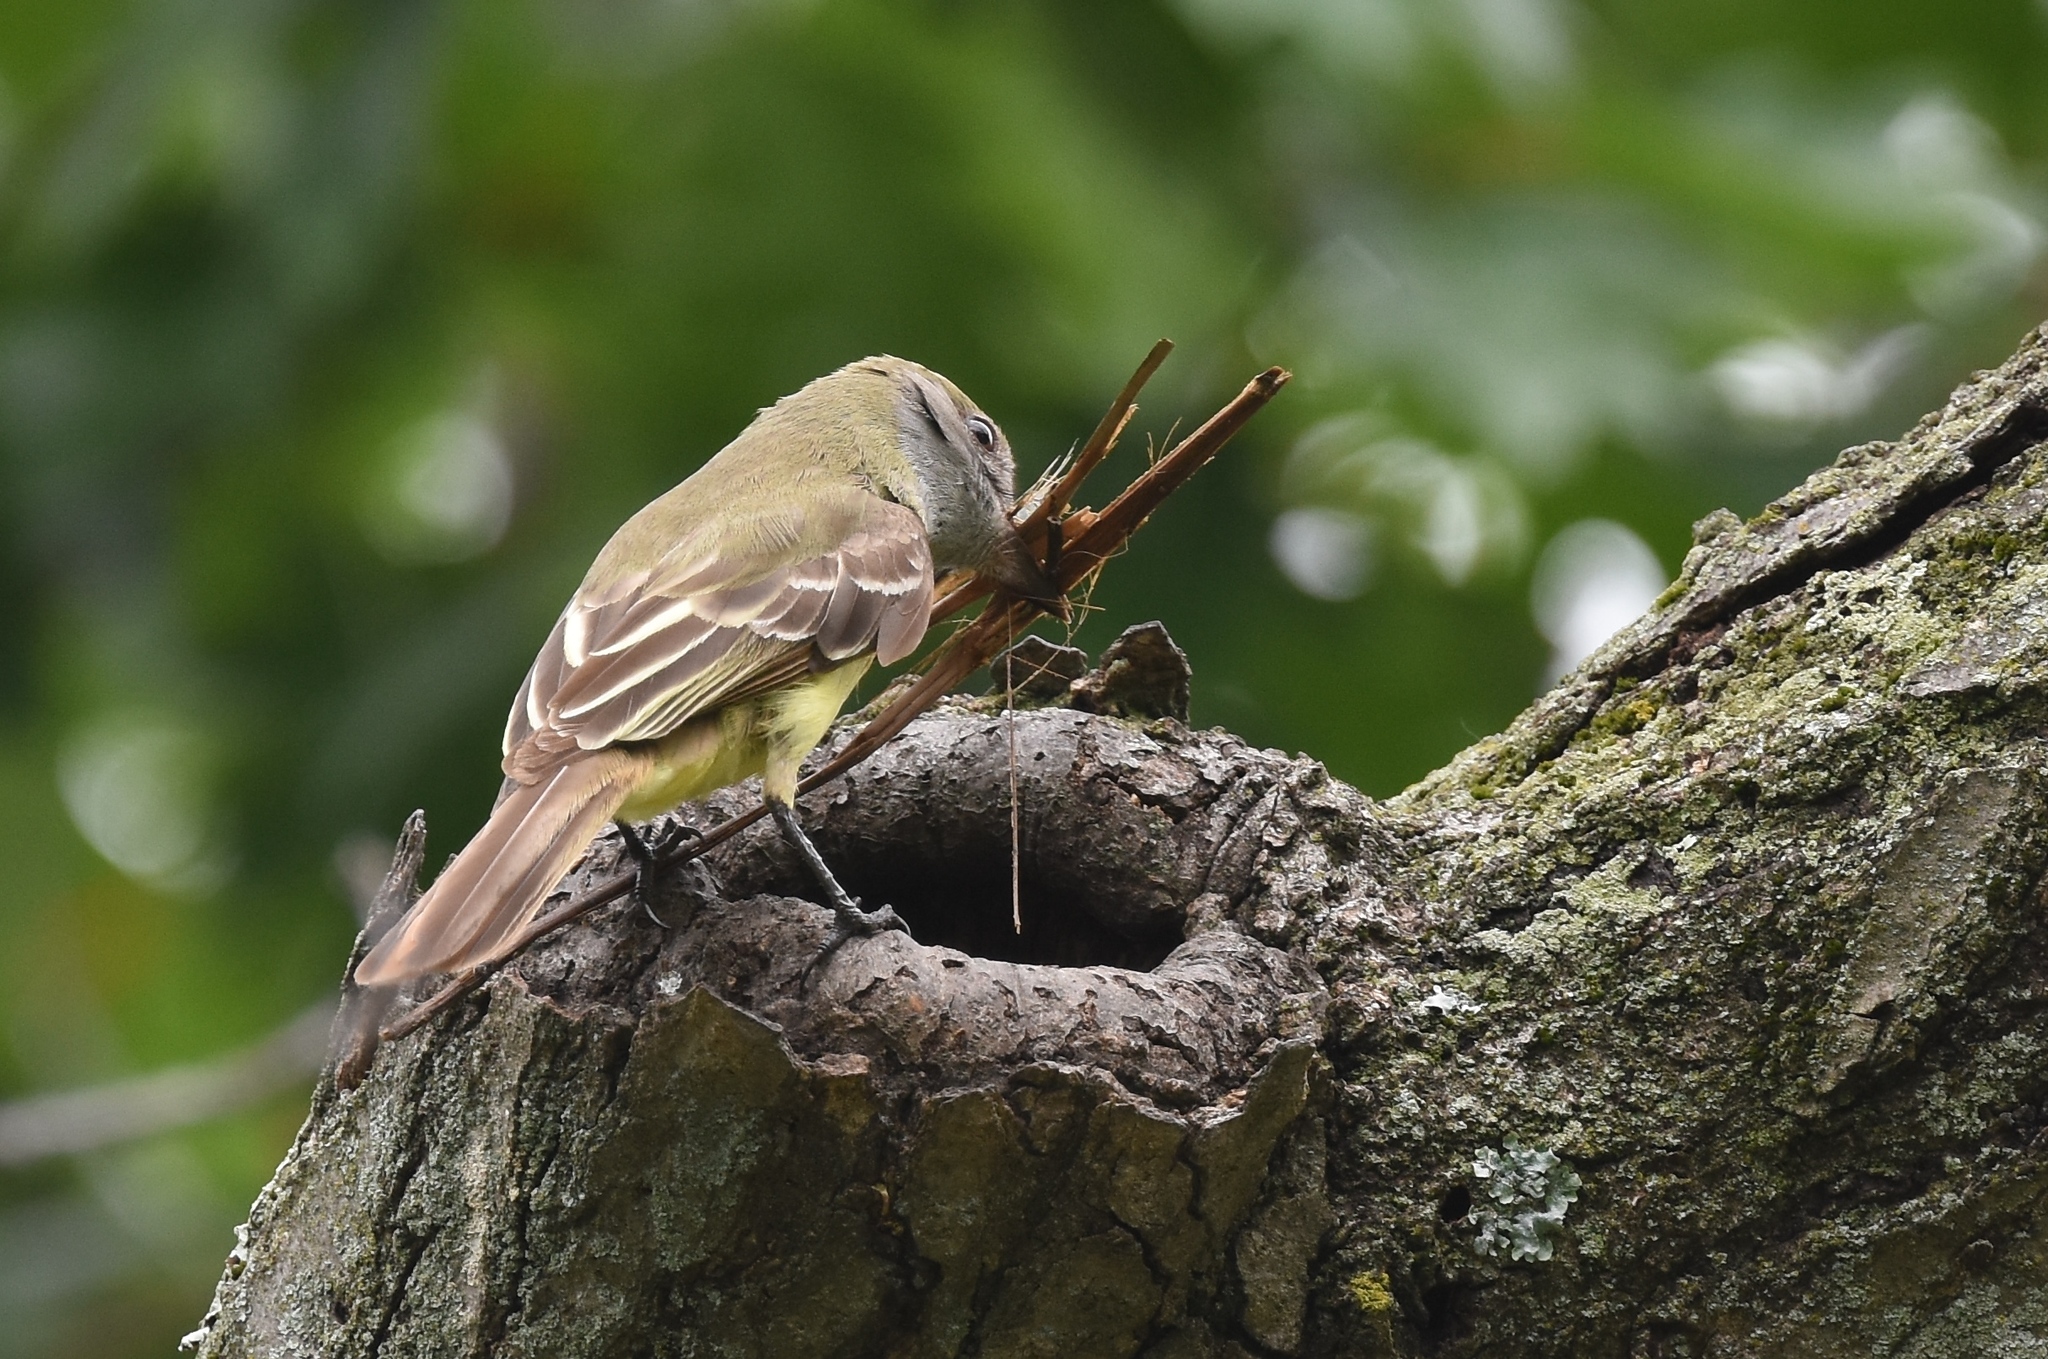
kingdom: Animalia
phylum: Chordata
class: Aves
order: Passeriformes
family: Tyrannidae
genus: Myiarchus
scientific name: Myiarchus crinitus
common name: Great crested flycatcher
